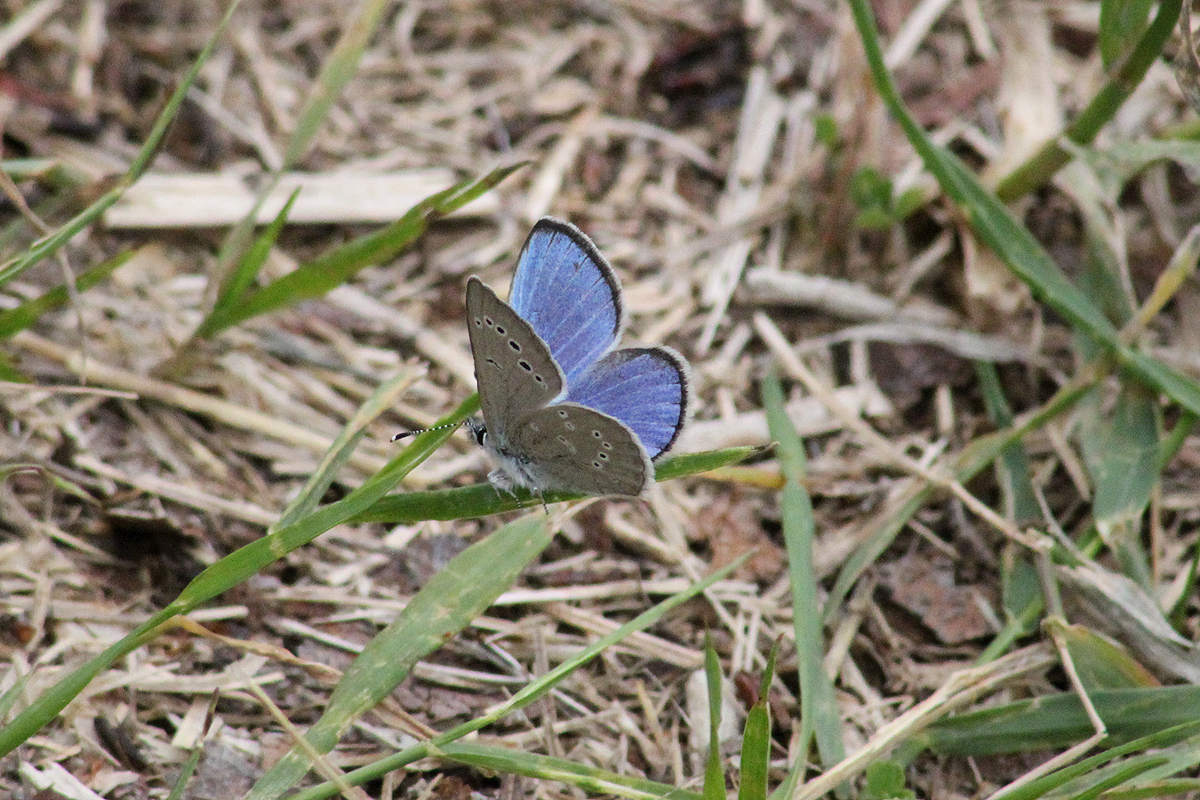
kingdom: Animalia
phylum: Arthropoda
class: Insecta
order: Lepidoptera
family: Lycaenidae
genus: Glaucopsyche
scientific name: Glaucopsyche lygdamus
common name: Silvery blue
